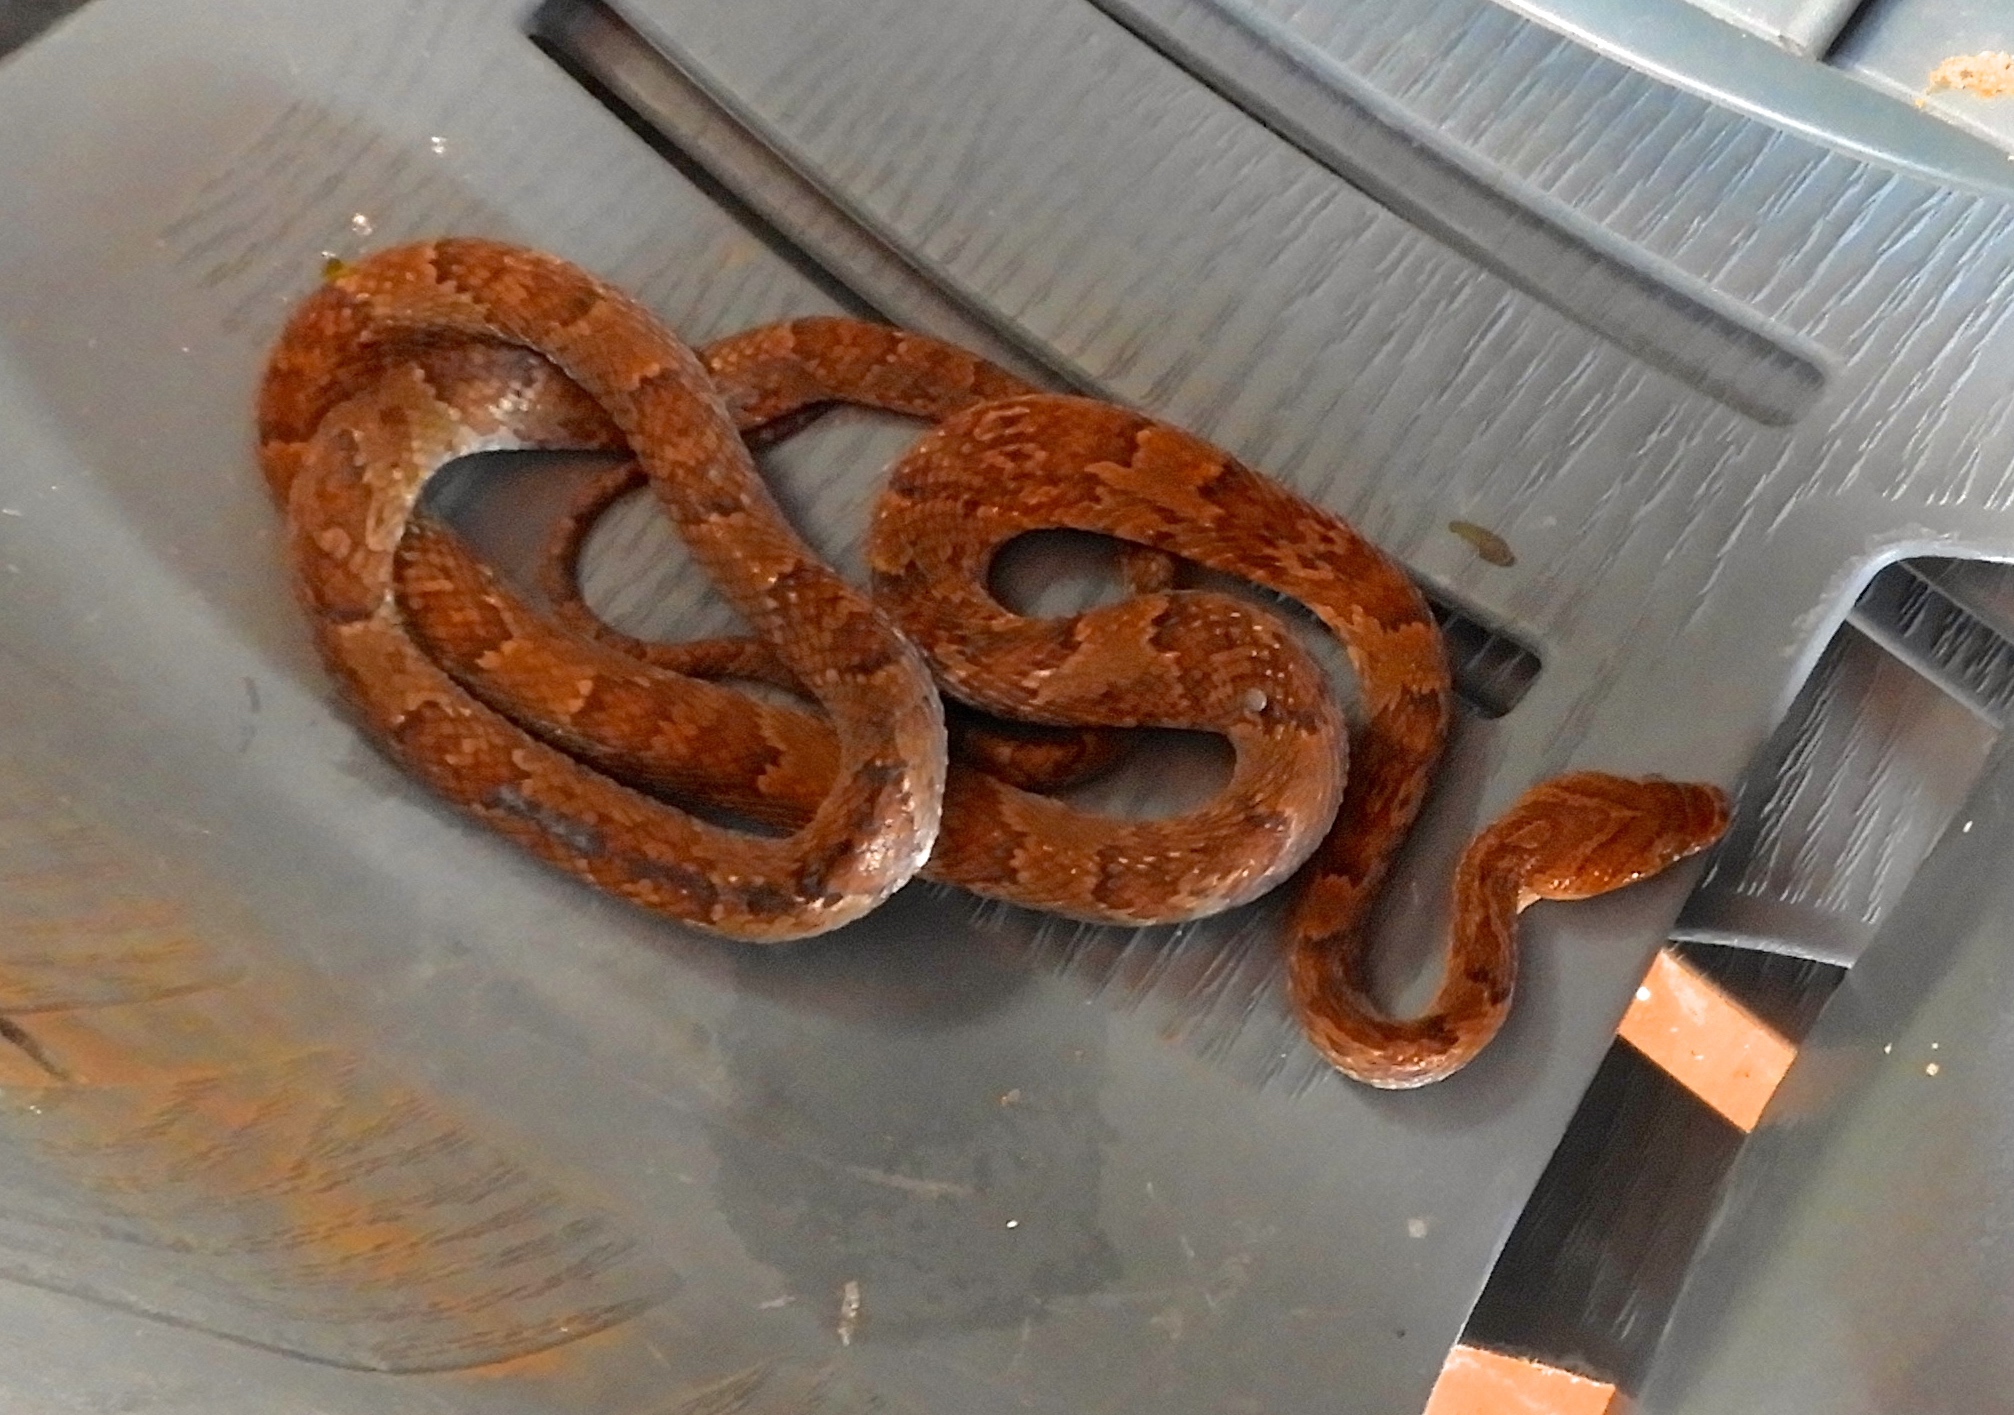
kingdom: Animalia
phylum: Chordata
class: Squamata
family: Colubridae
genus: Trimorphodon
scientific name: Trimorphodon paucimaculatus
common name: Sinaloan lyresnake
